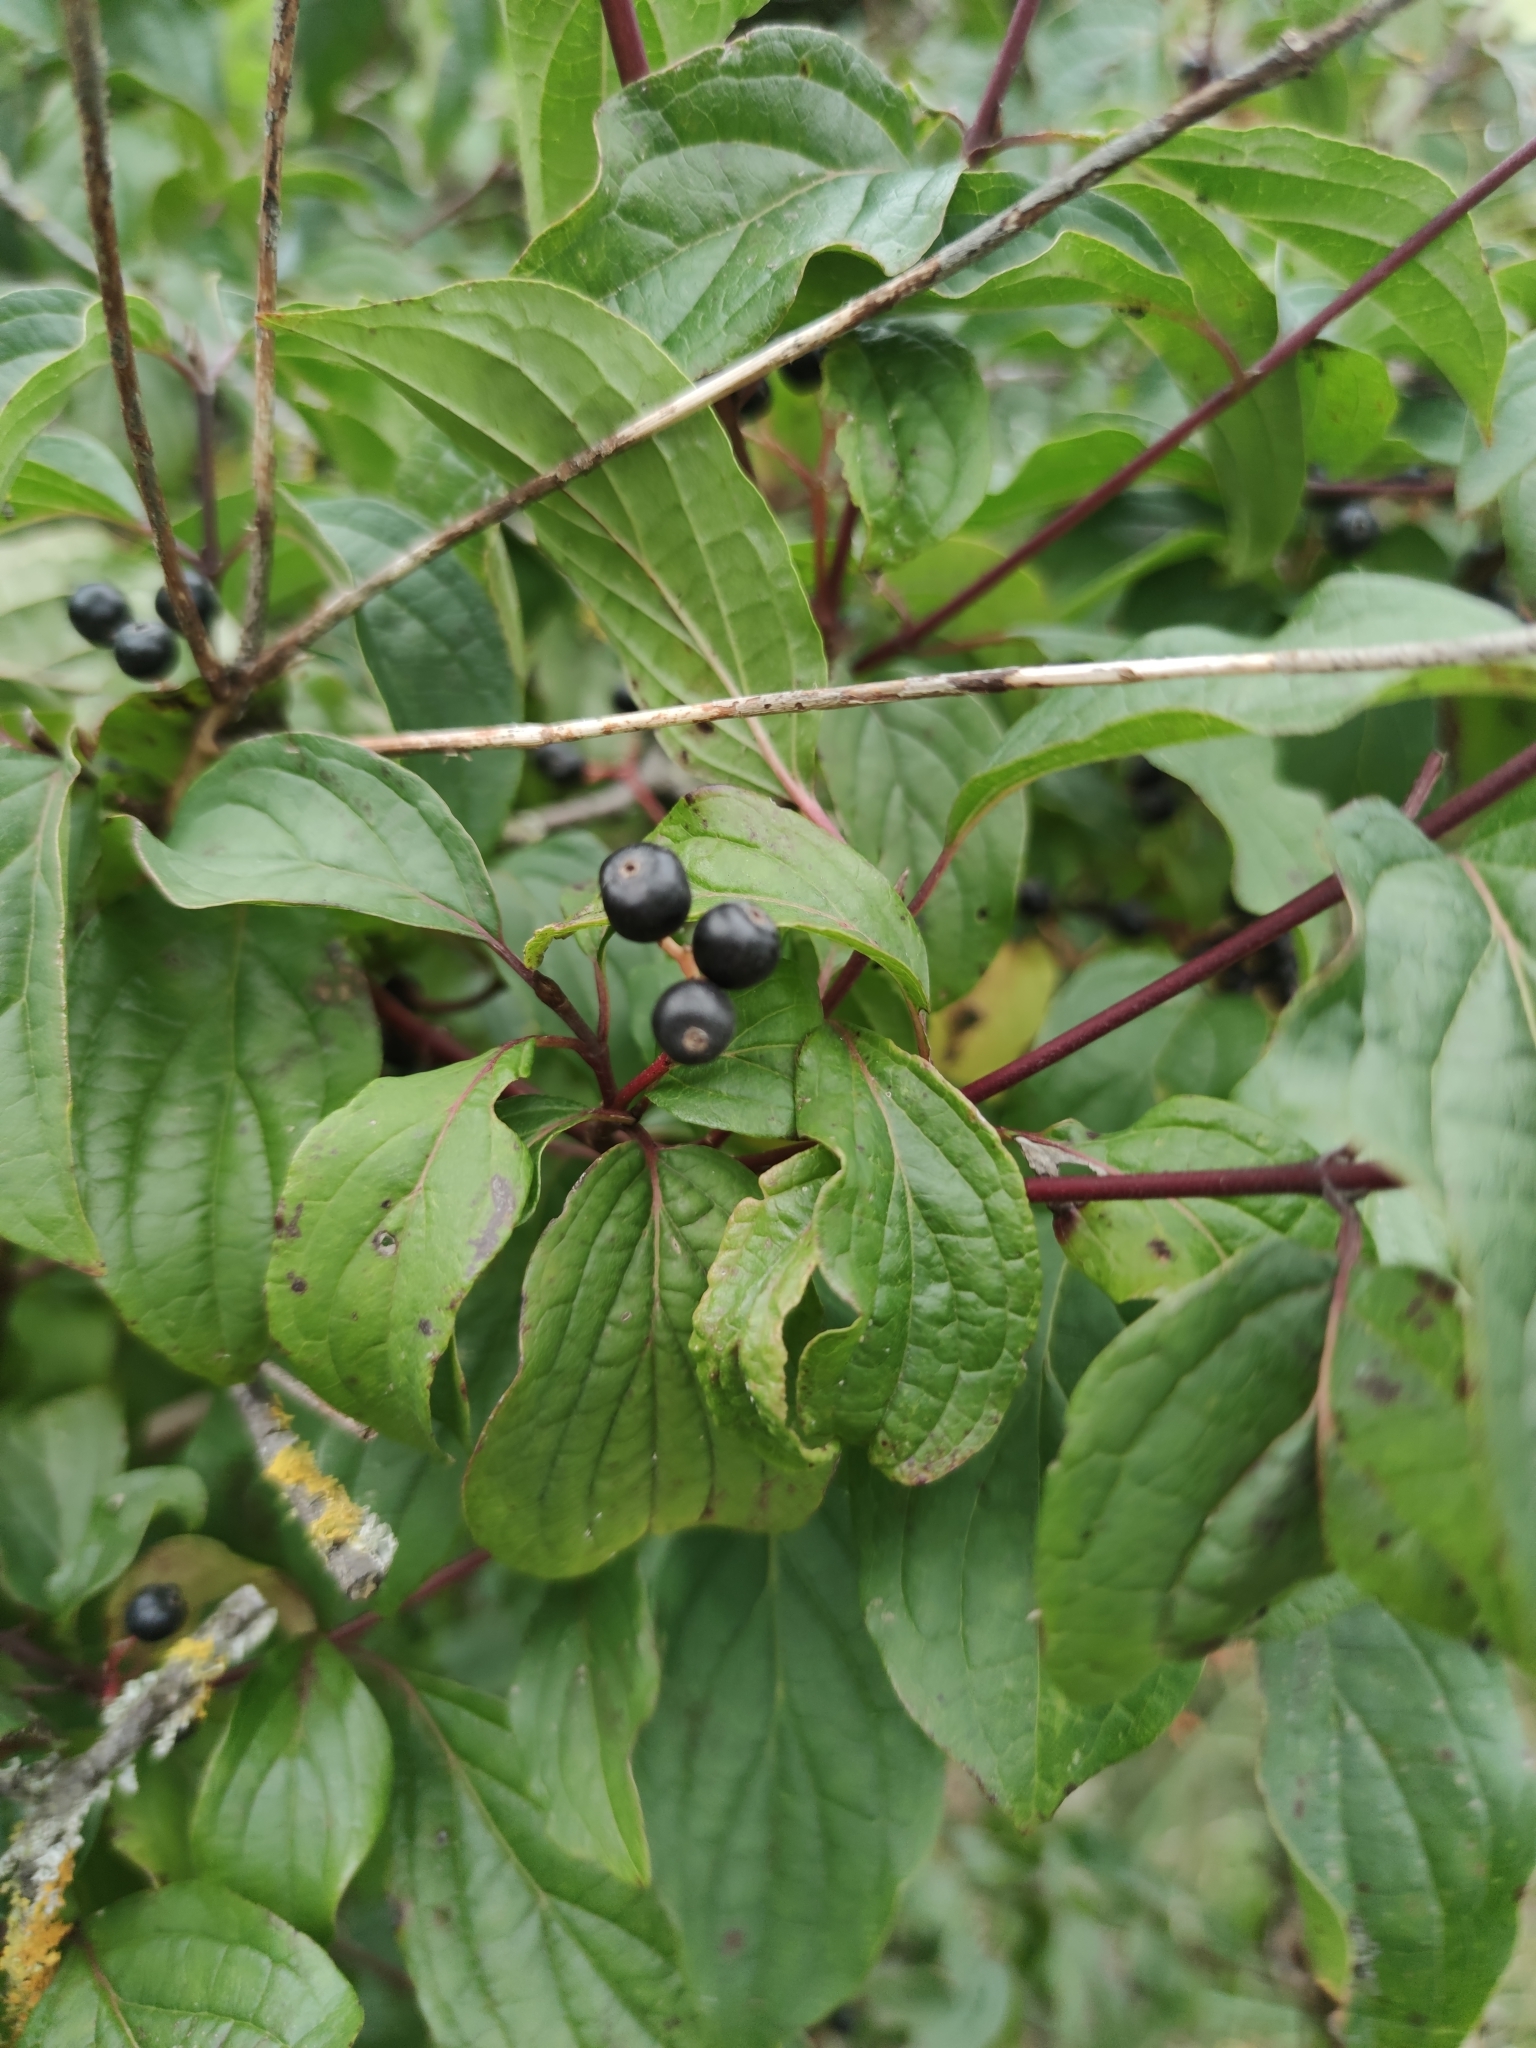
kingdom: Plantae
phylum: Tracheophyta
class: Magnoliopsida
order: Cornales
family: Cornaceae
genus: Cornus
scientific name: Cornus sanguinea
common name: Dogwood
